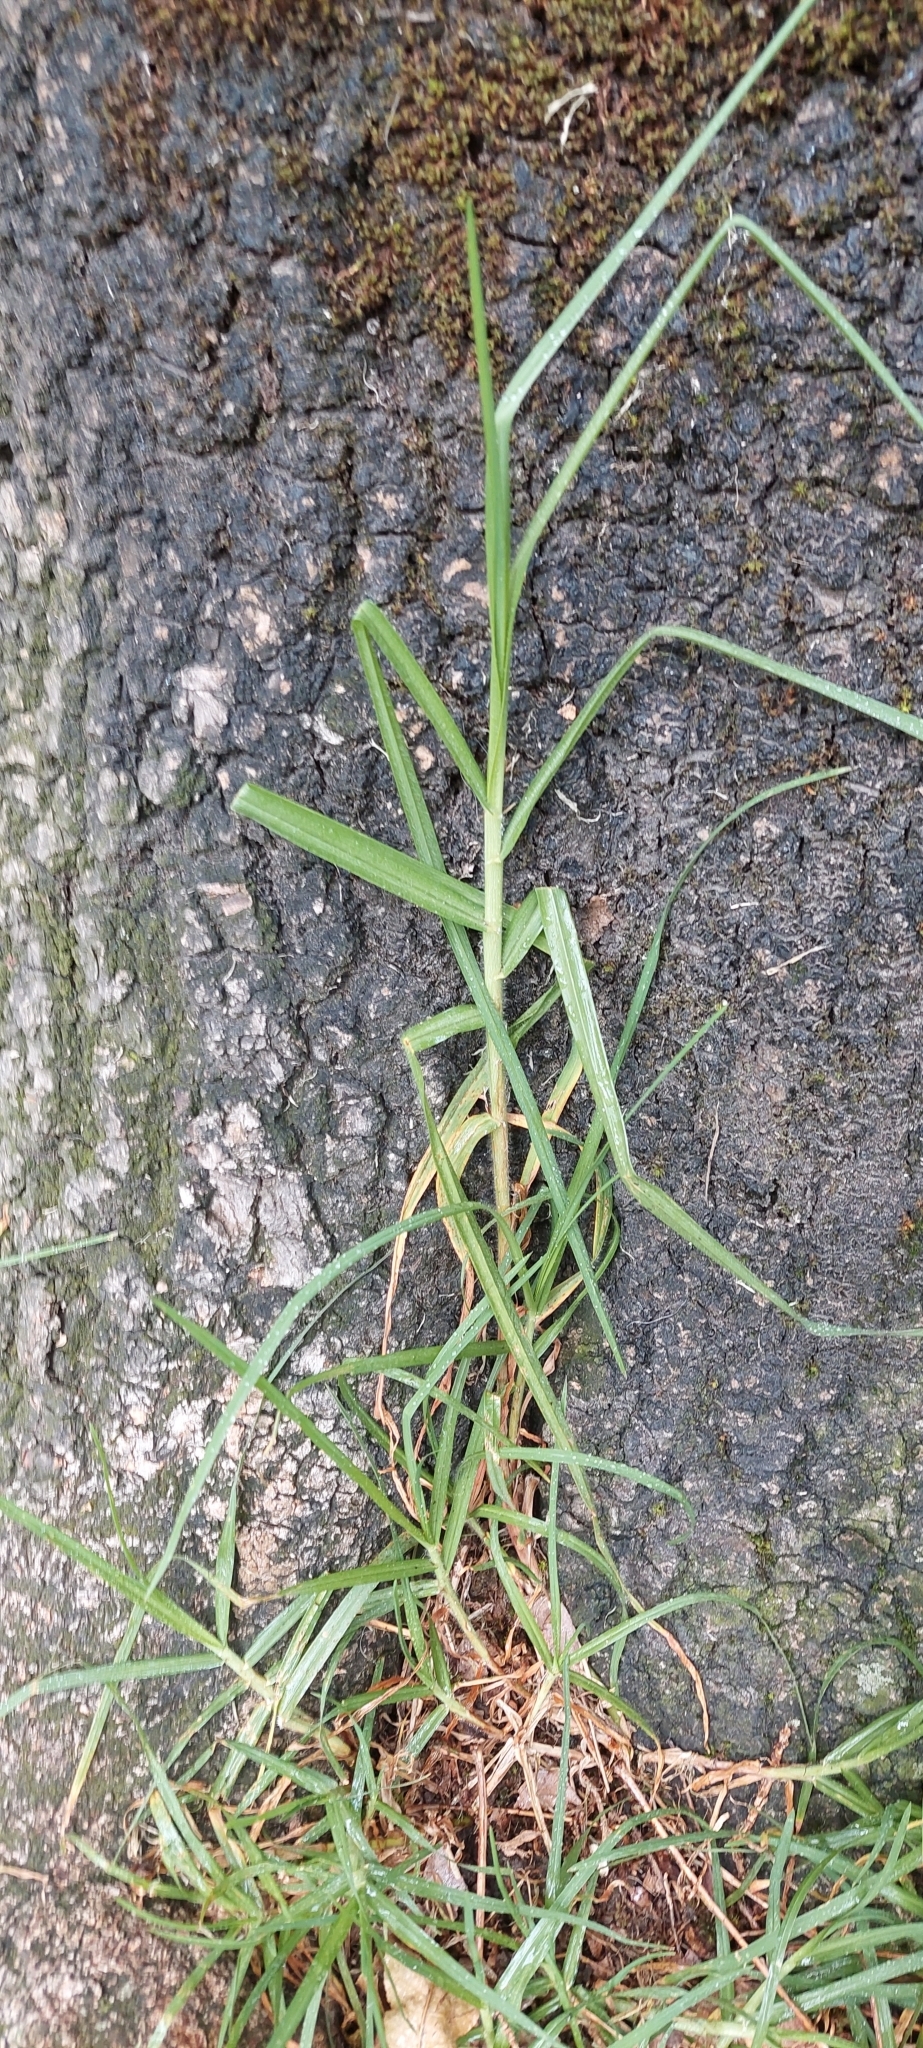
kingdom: Plantae
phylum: Tracheophyta
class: Liliopsida
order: Poales
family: Poaceae
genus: Cenchrus
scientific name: Cenchrus clandestinus
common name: Kikuyugrass
